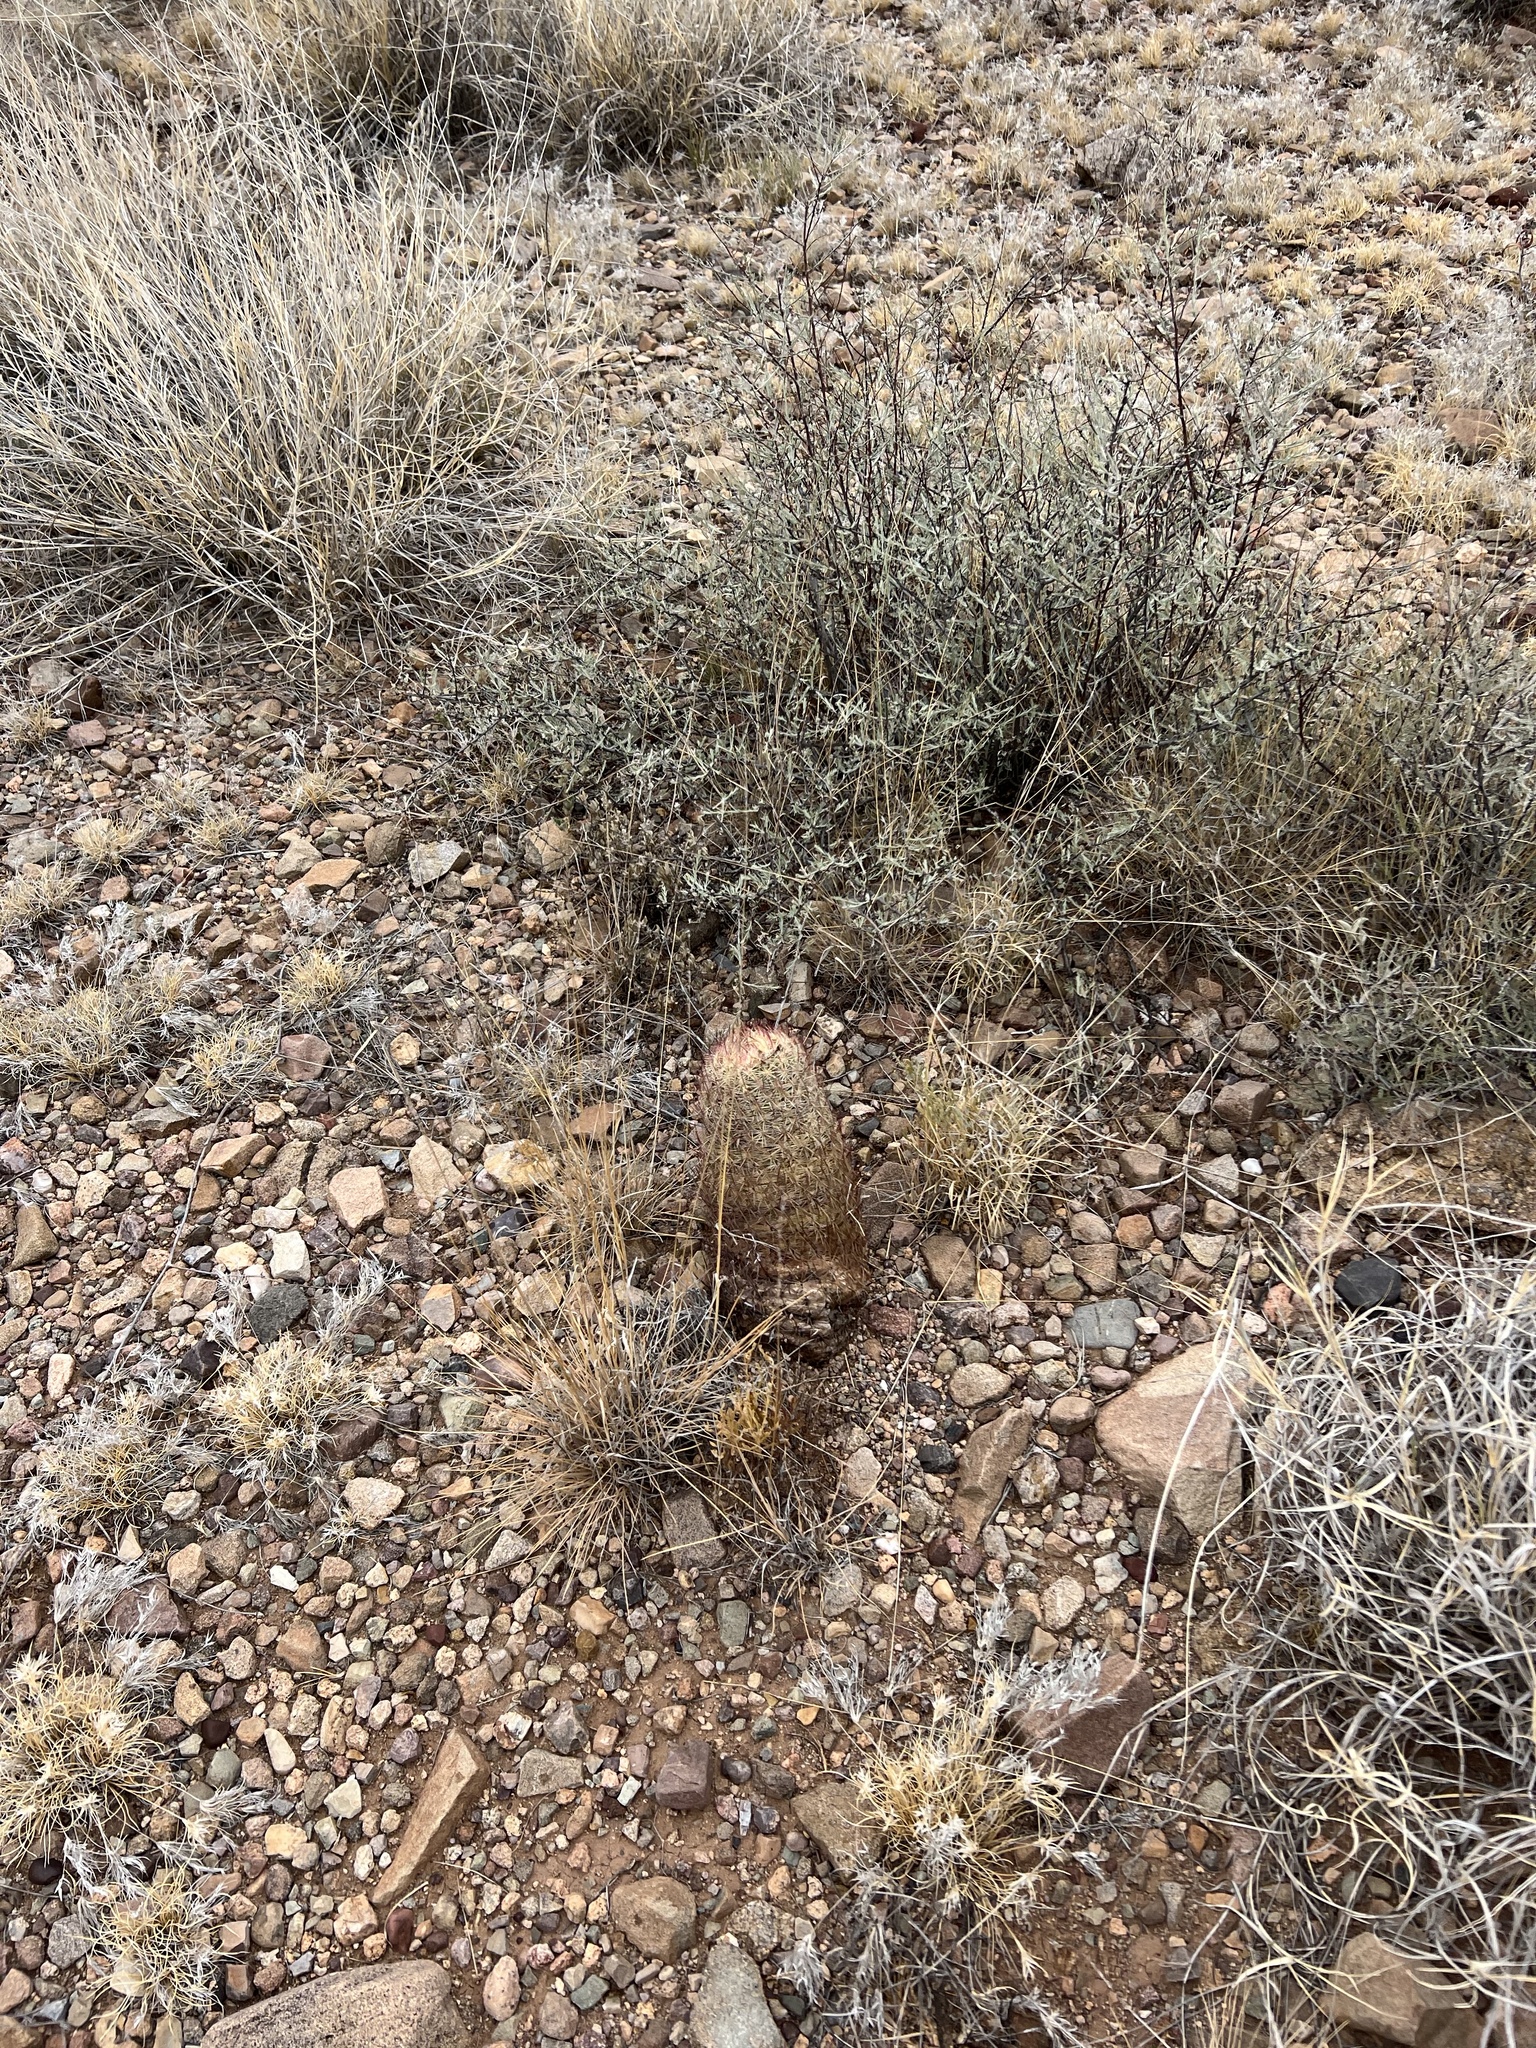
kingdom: Plantae
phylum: Tracheophyta
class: Magnoliopsida
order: Caryophyllales
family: Cactaceae
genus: Sclerocactus
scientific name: Sclerocactus johnsonii
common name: Eight-spine fishhook cactus
